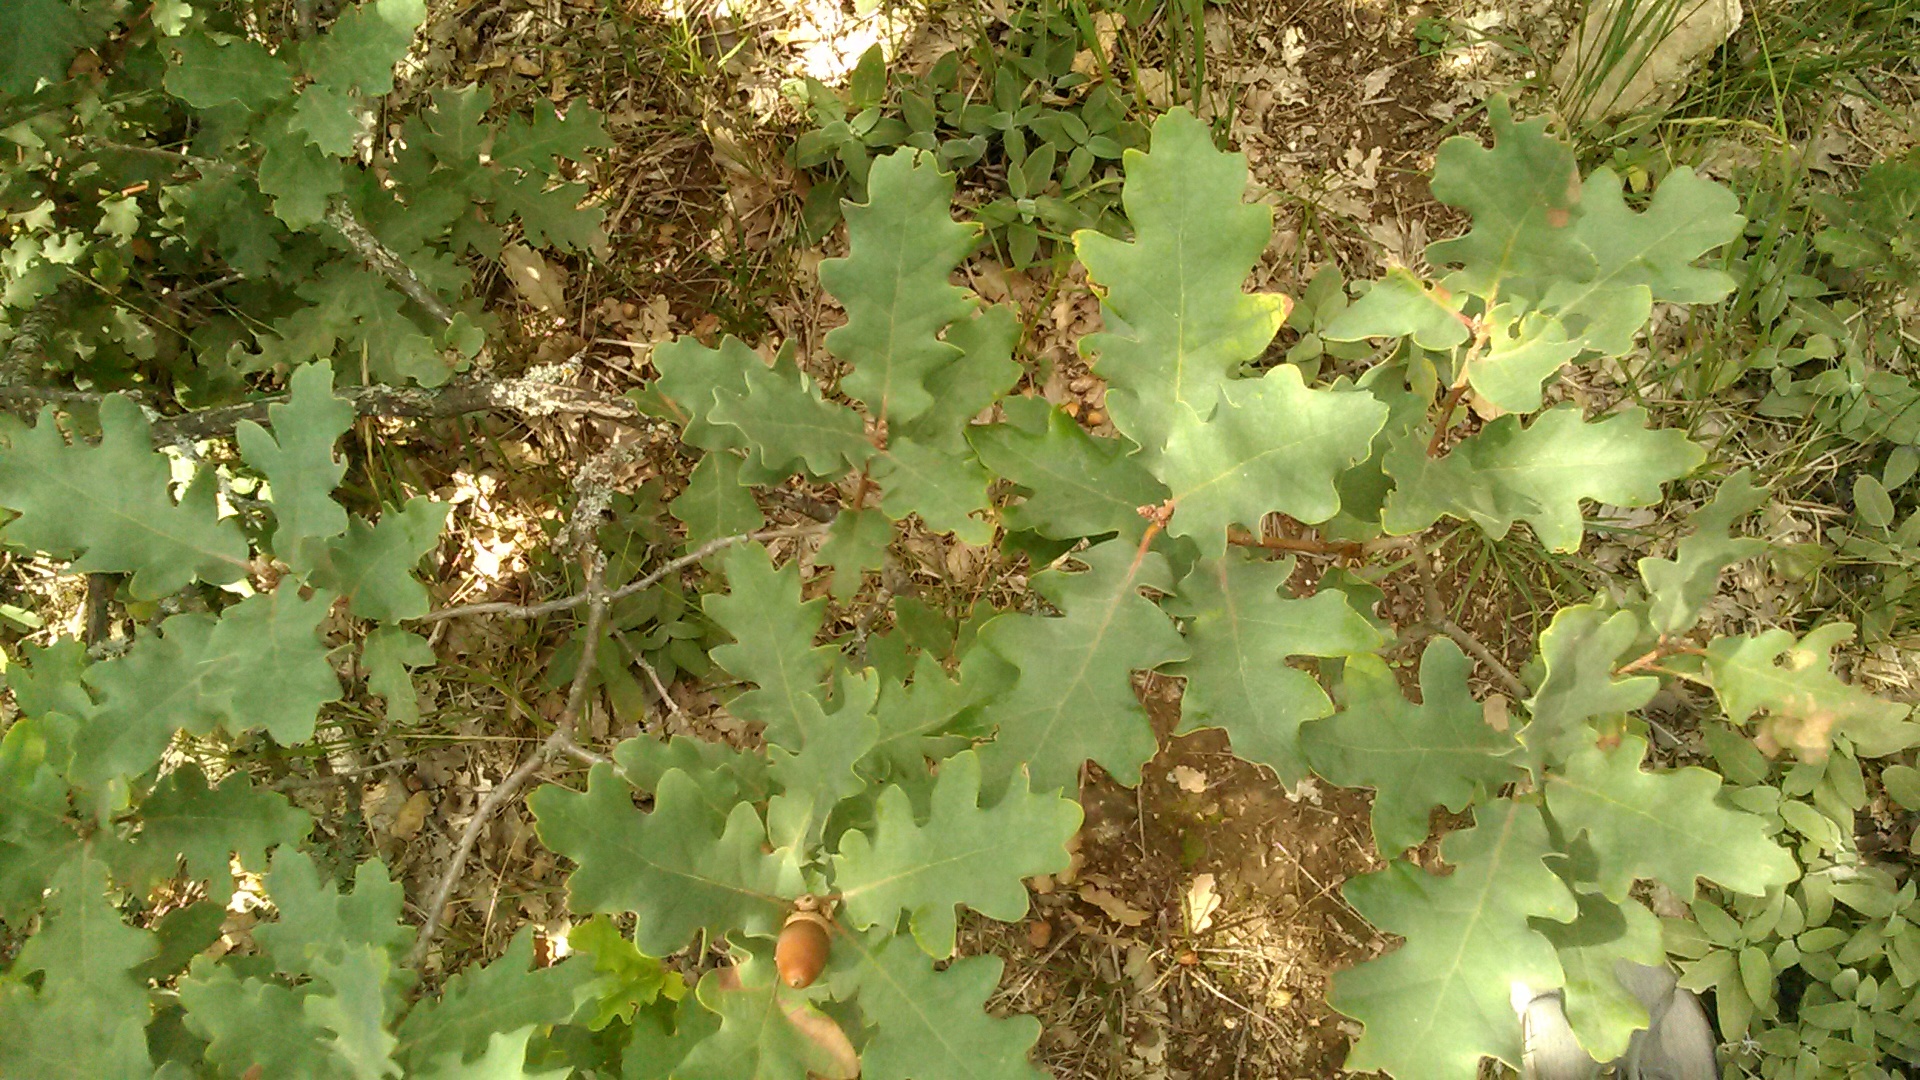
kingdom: Plantae
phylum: Tracheophyta
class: Magnoliopsida
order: Fagales
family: Fagaceae
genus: Quercus
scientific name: Quercus pubescens
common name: Downy oak
